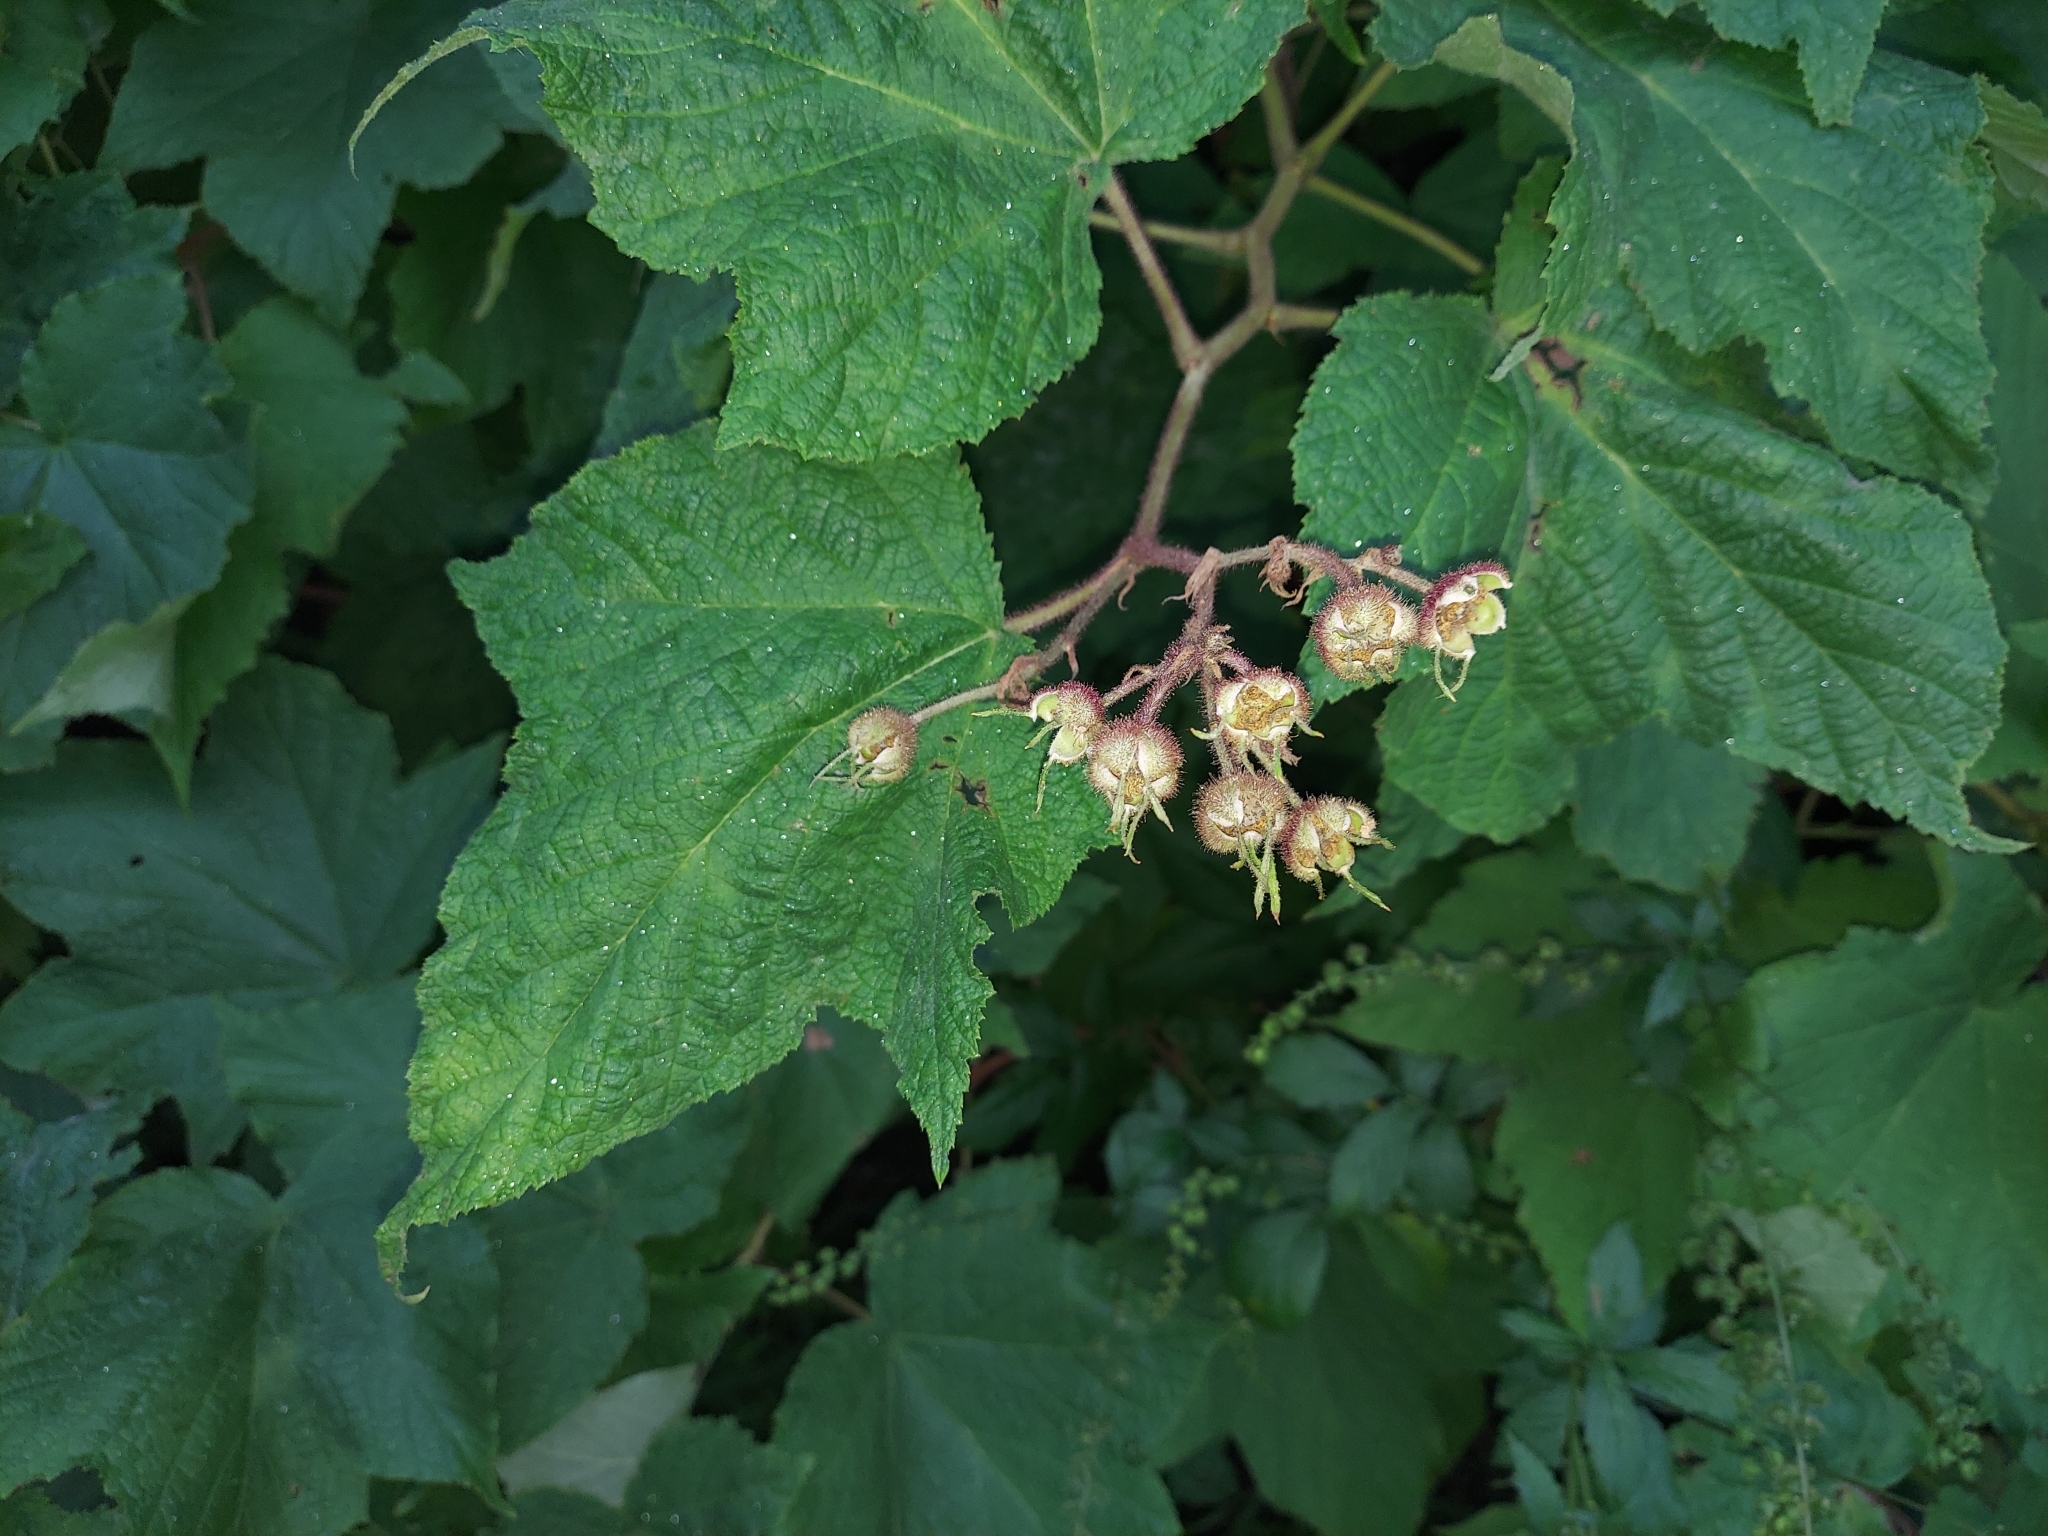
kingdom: Plantae
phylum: Tracheophyta
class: Magnoliopsida
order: Rosales
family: Rosaceae
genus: Rubus
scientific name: Rubus odoratus
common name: Purple-flowered raspberry
